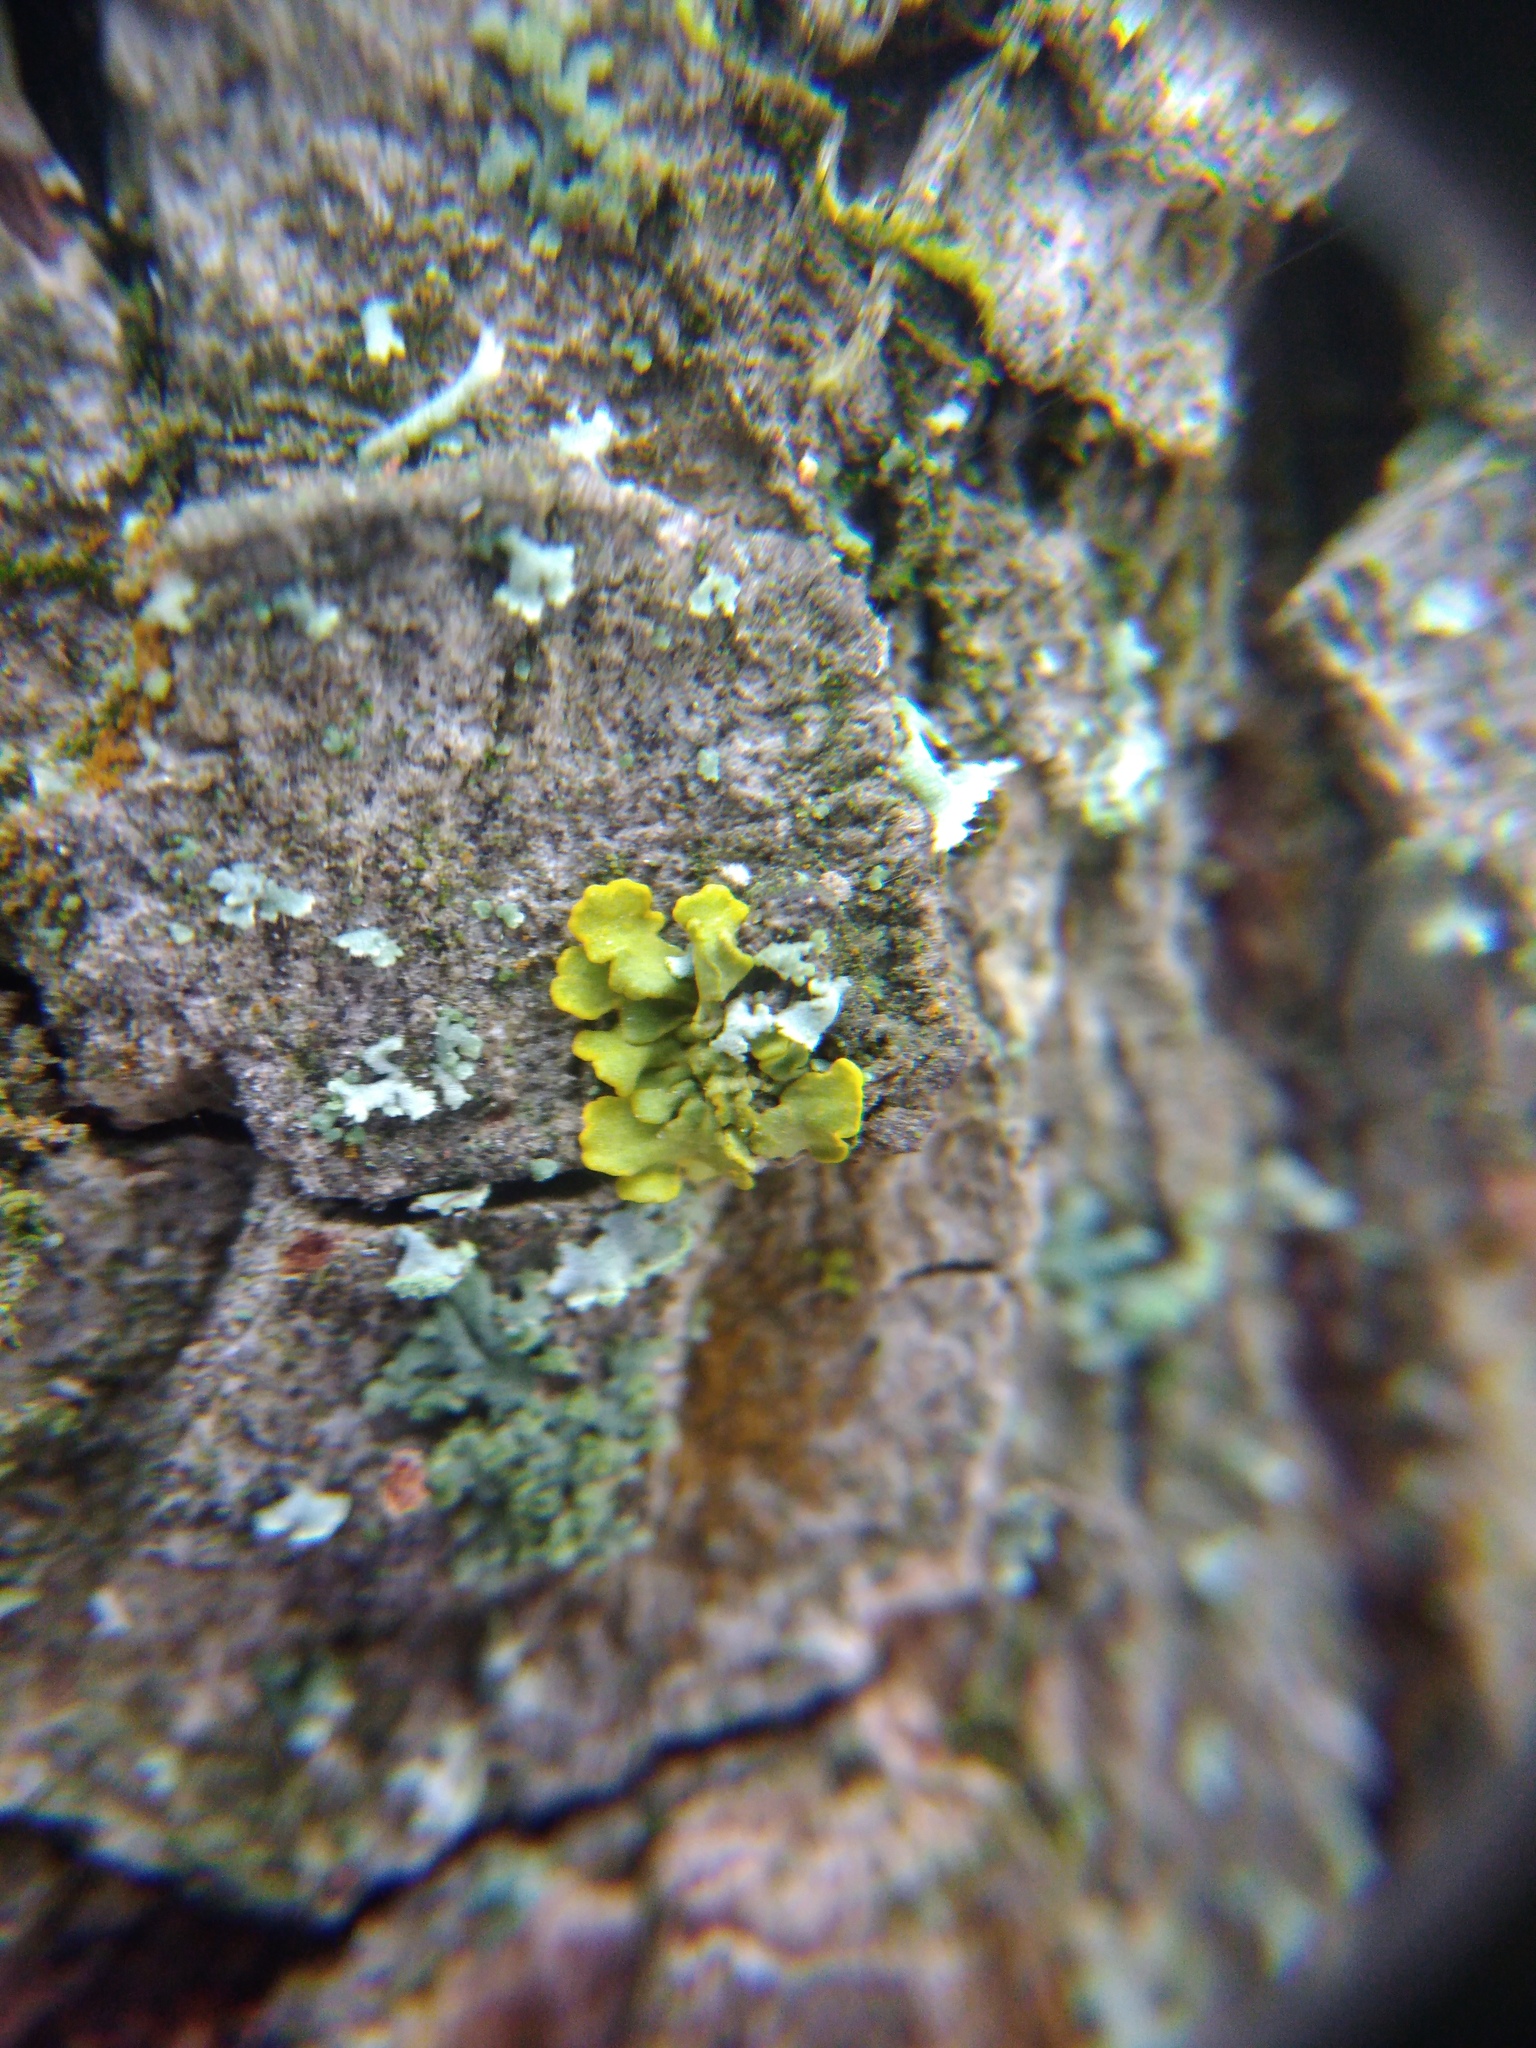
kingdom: Fungi
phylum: Ascomycota
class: Lecanoromycetes
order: Teloschistales
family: Teloschistaceae
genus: Xanthoria
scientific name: Xanthoria parietina
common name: Common orange lichen
